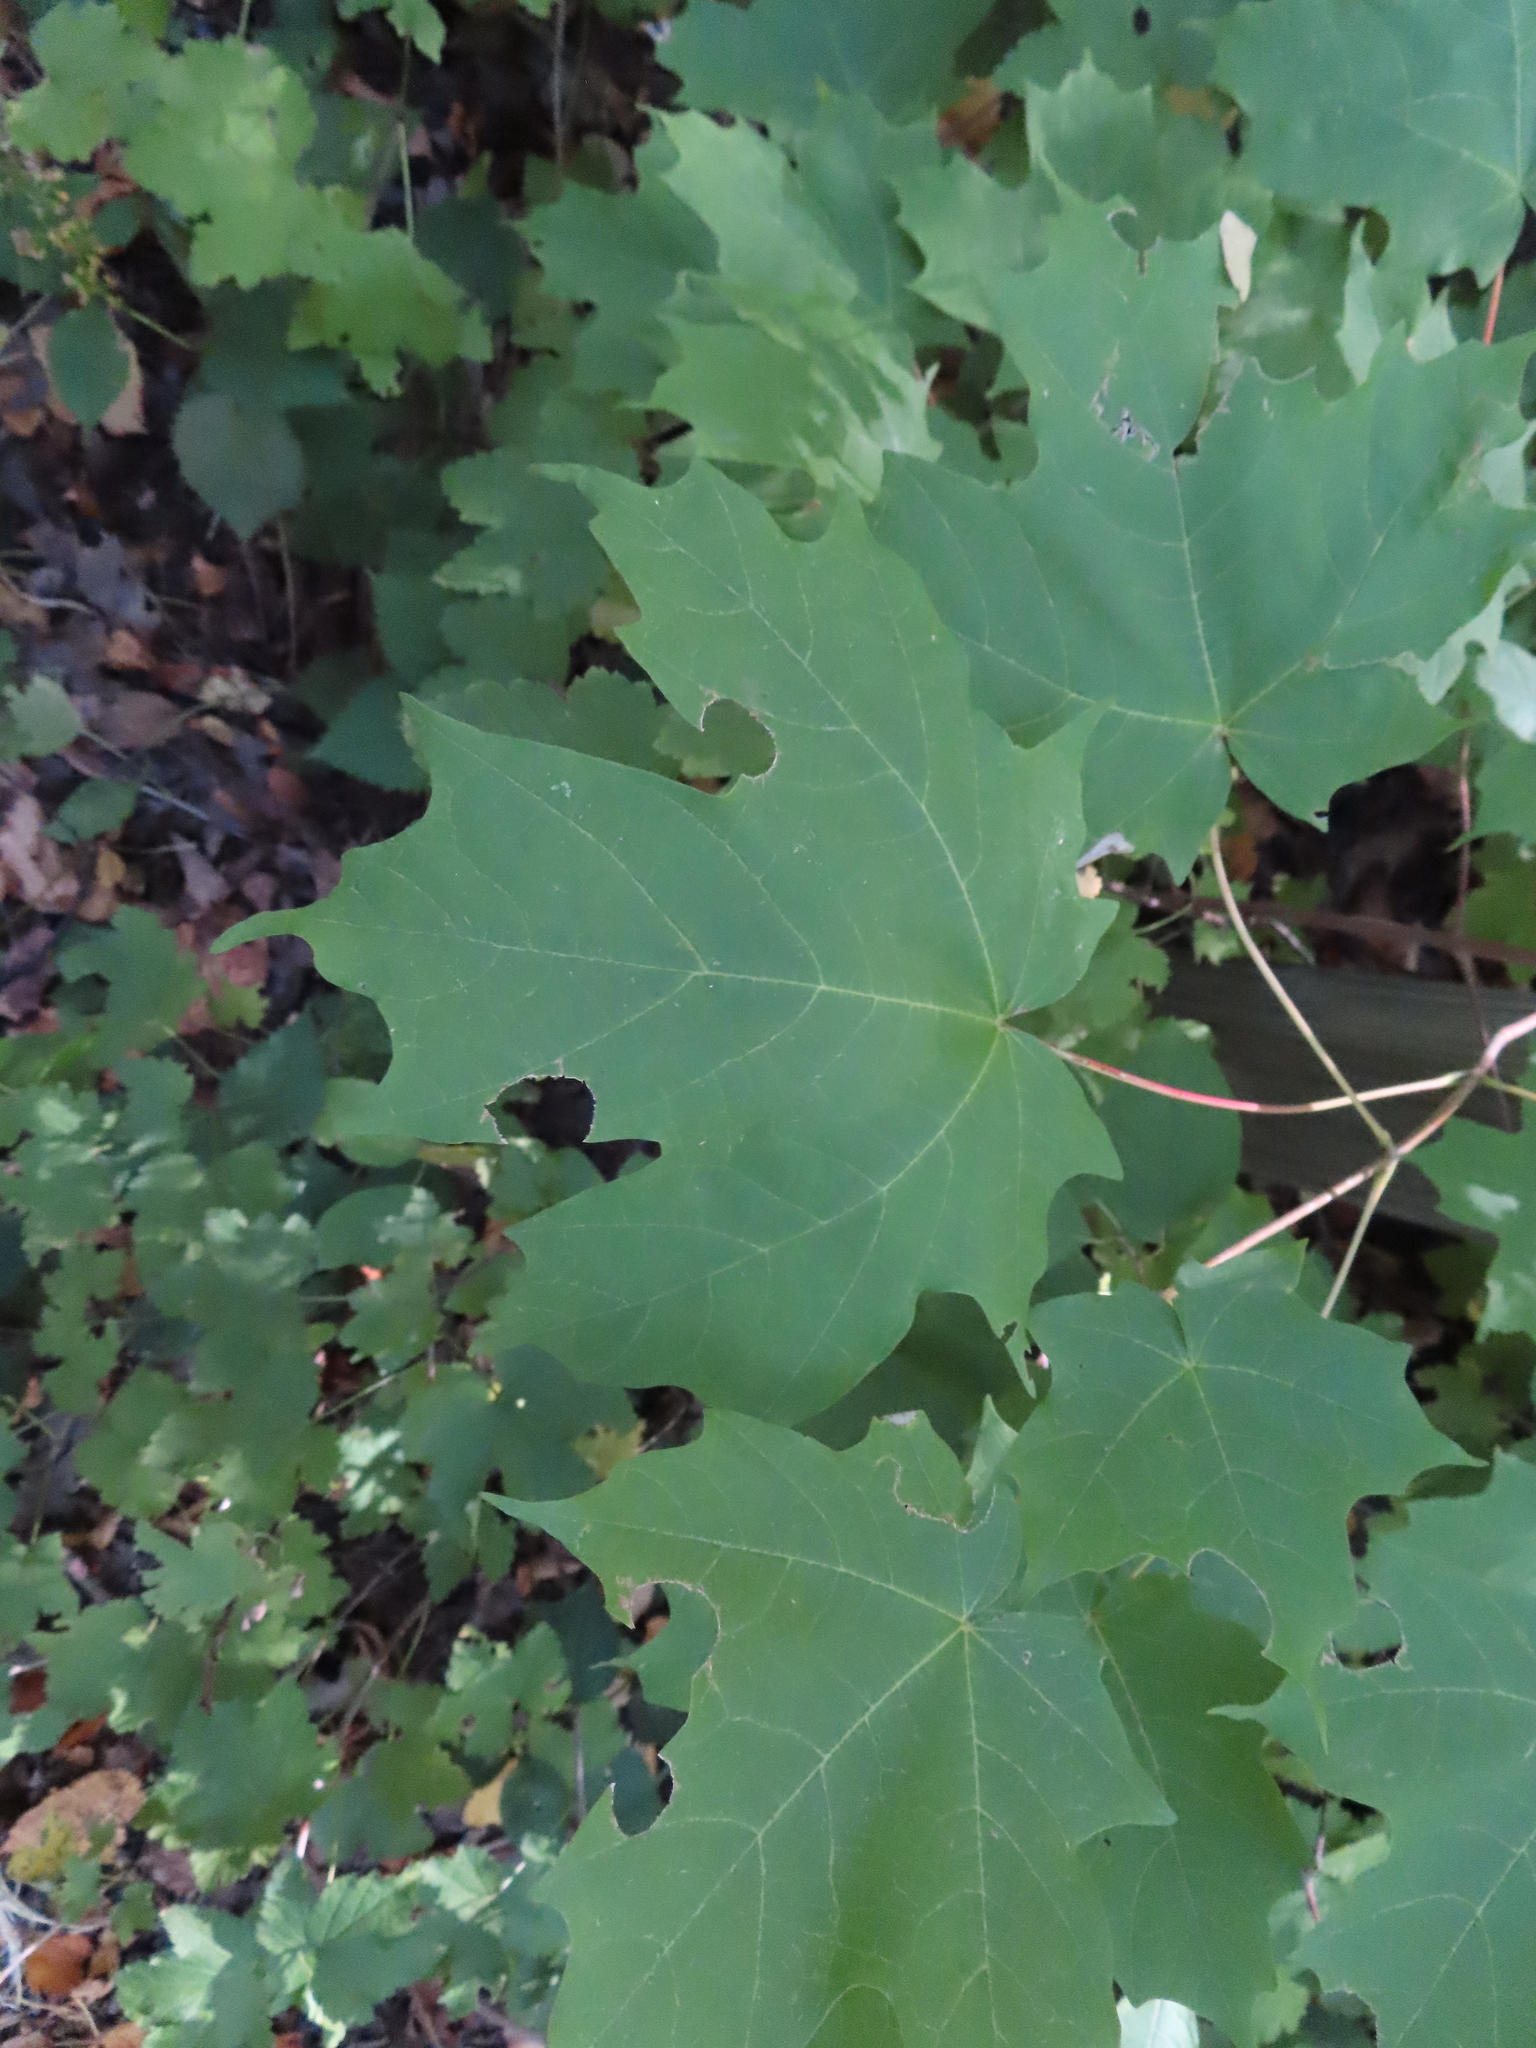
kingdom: Plantae
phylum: Tracheophyta
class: Magnoliopsida
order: Sapindales
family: Sapindaceae
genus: Acer
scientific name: Acer saccharum
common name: Sugar maple
